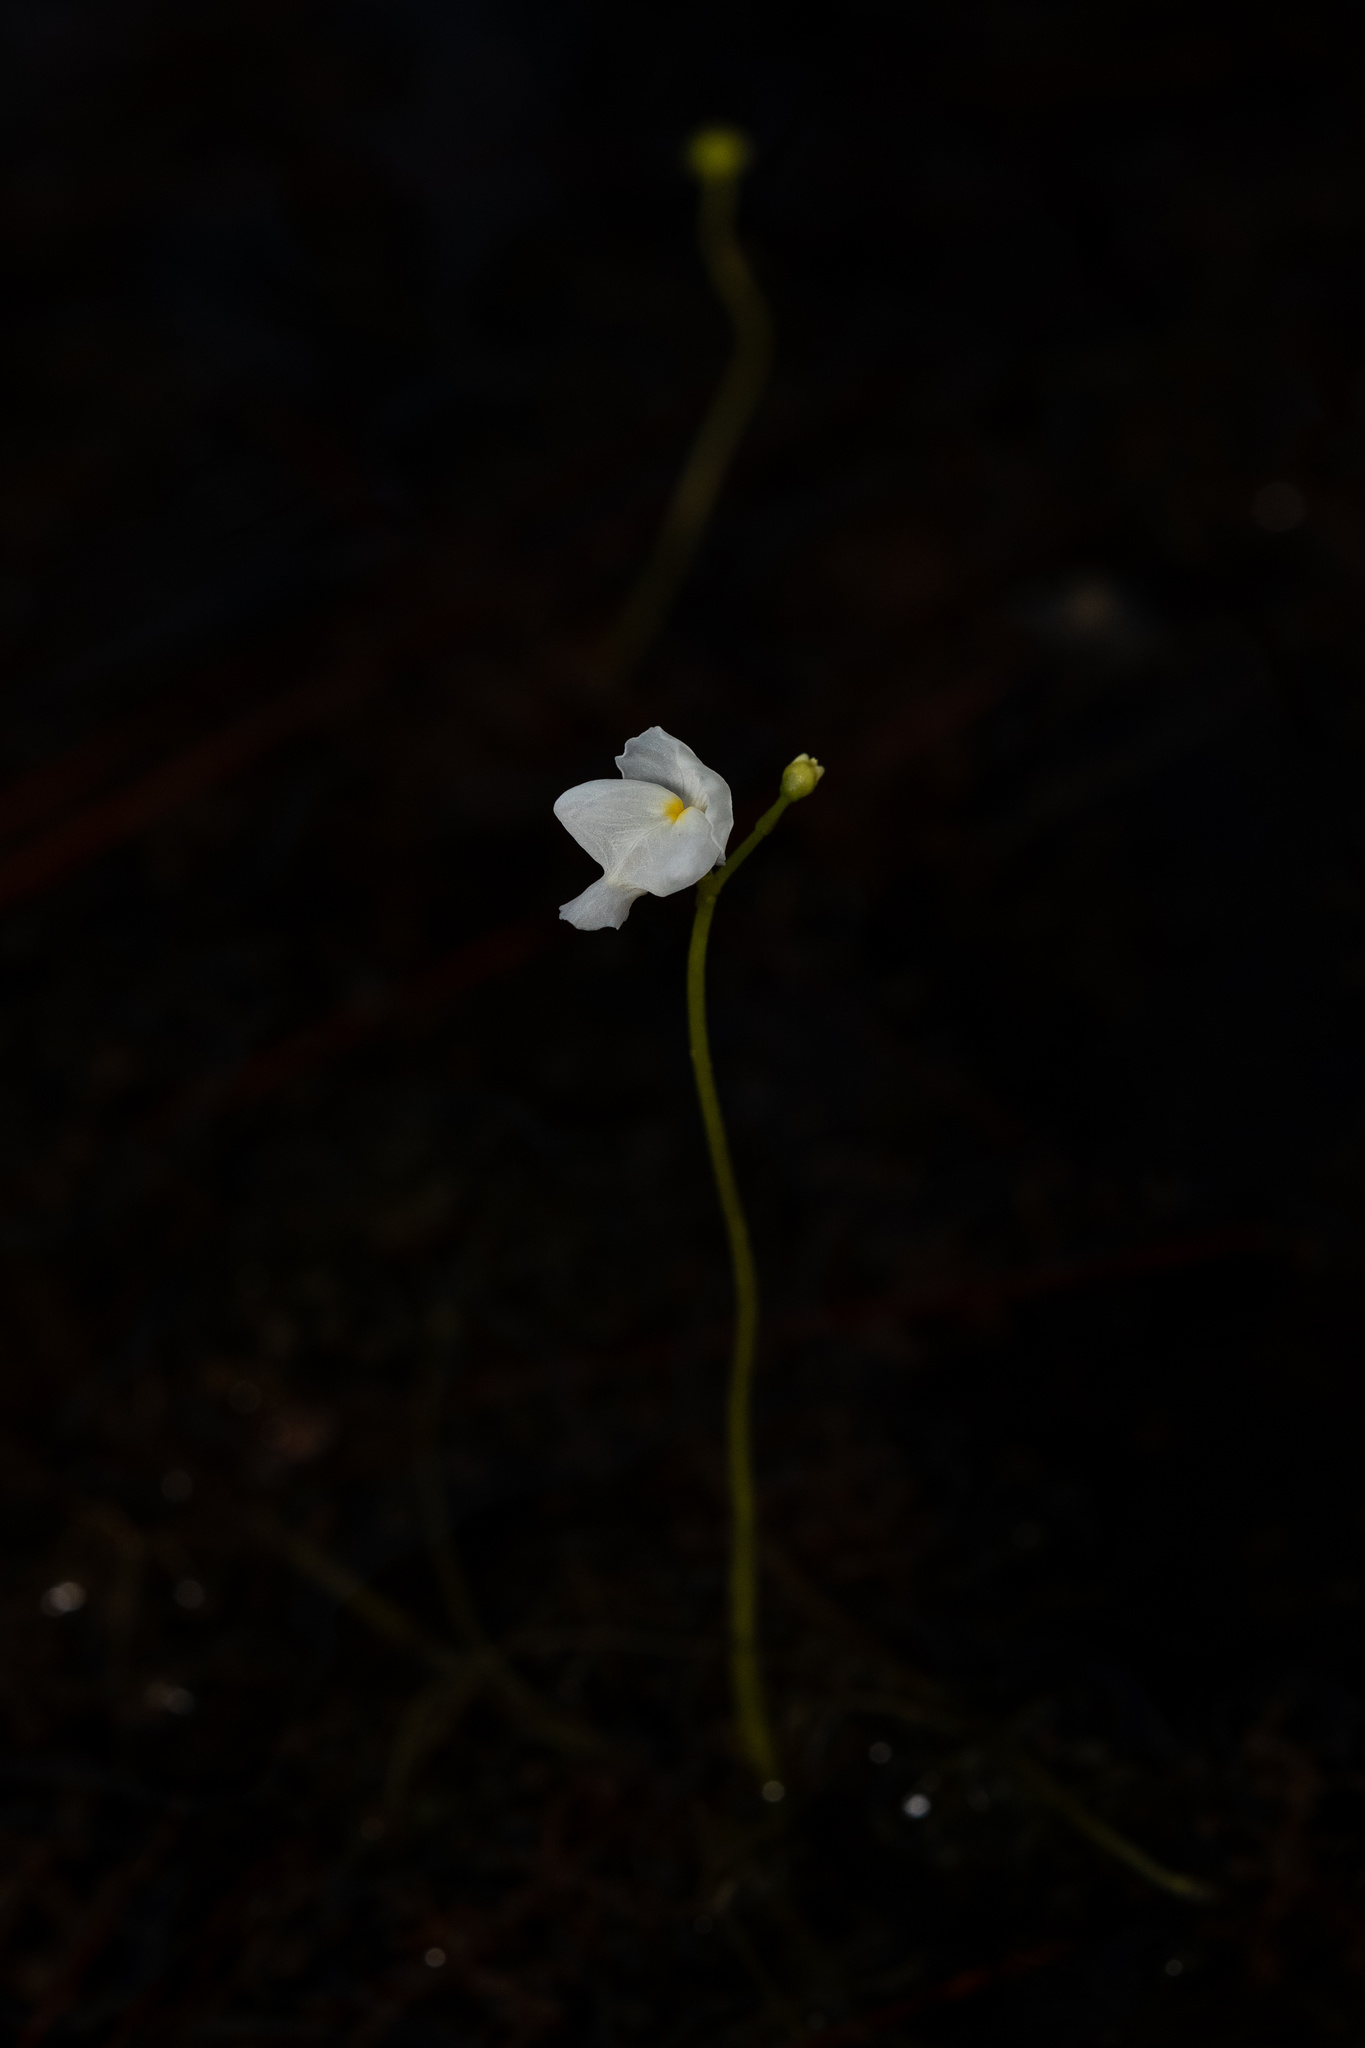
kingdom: Plantae
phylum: Tracheophyta
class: Magnoliopsida
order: Lamiales
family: Lentibulariaceae
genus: Utricularia
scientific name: Utricularia purpurea
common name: Eastern purple bladderwort
